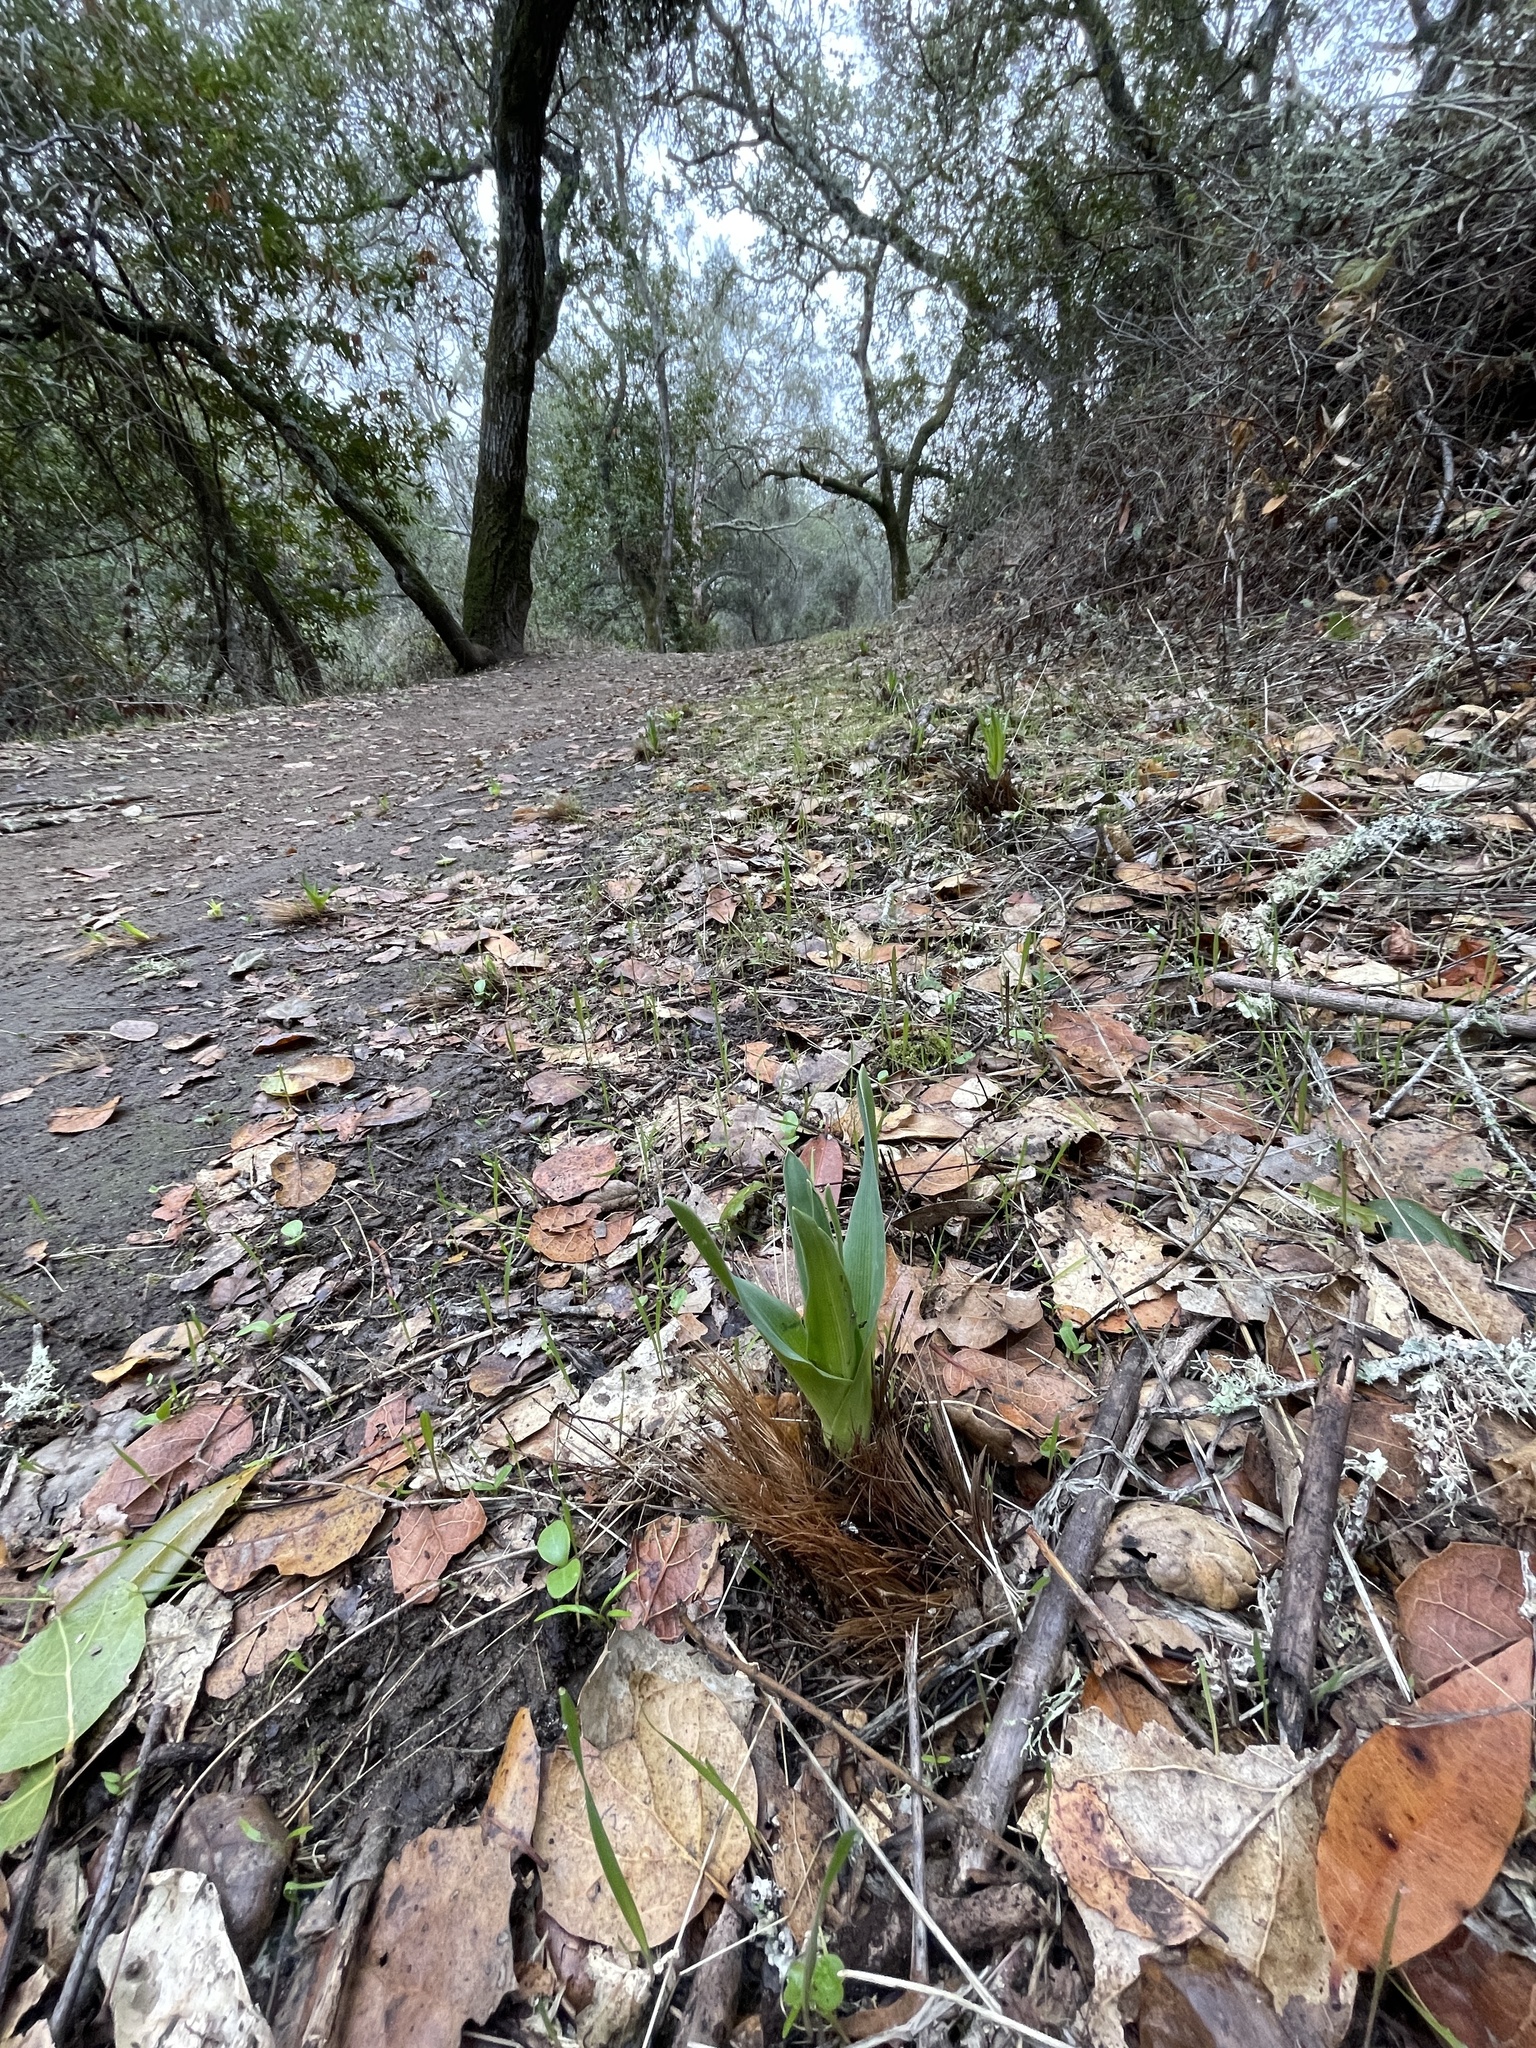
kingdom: Plantae
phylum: Tracheophyta
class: Liliopsida
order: Asparagales
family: Asparagaceae
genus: Chlorogalum
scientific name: Chlorogalum pomeridianum
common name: Amole
